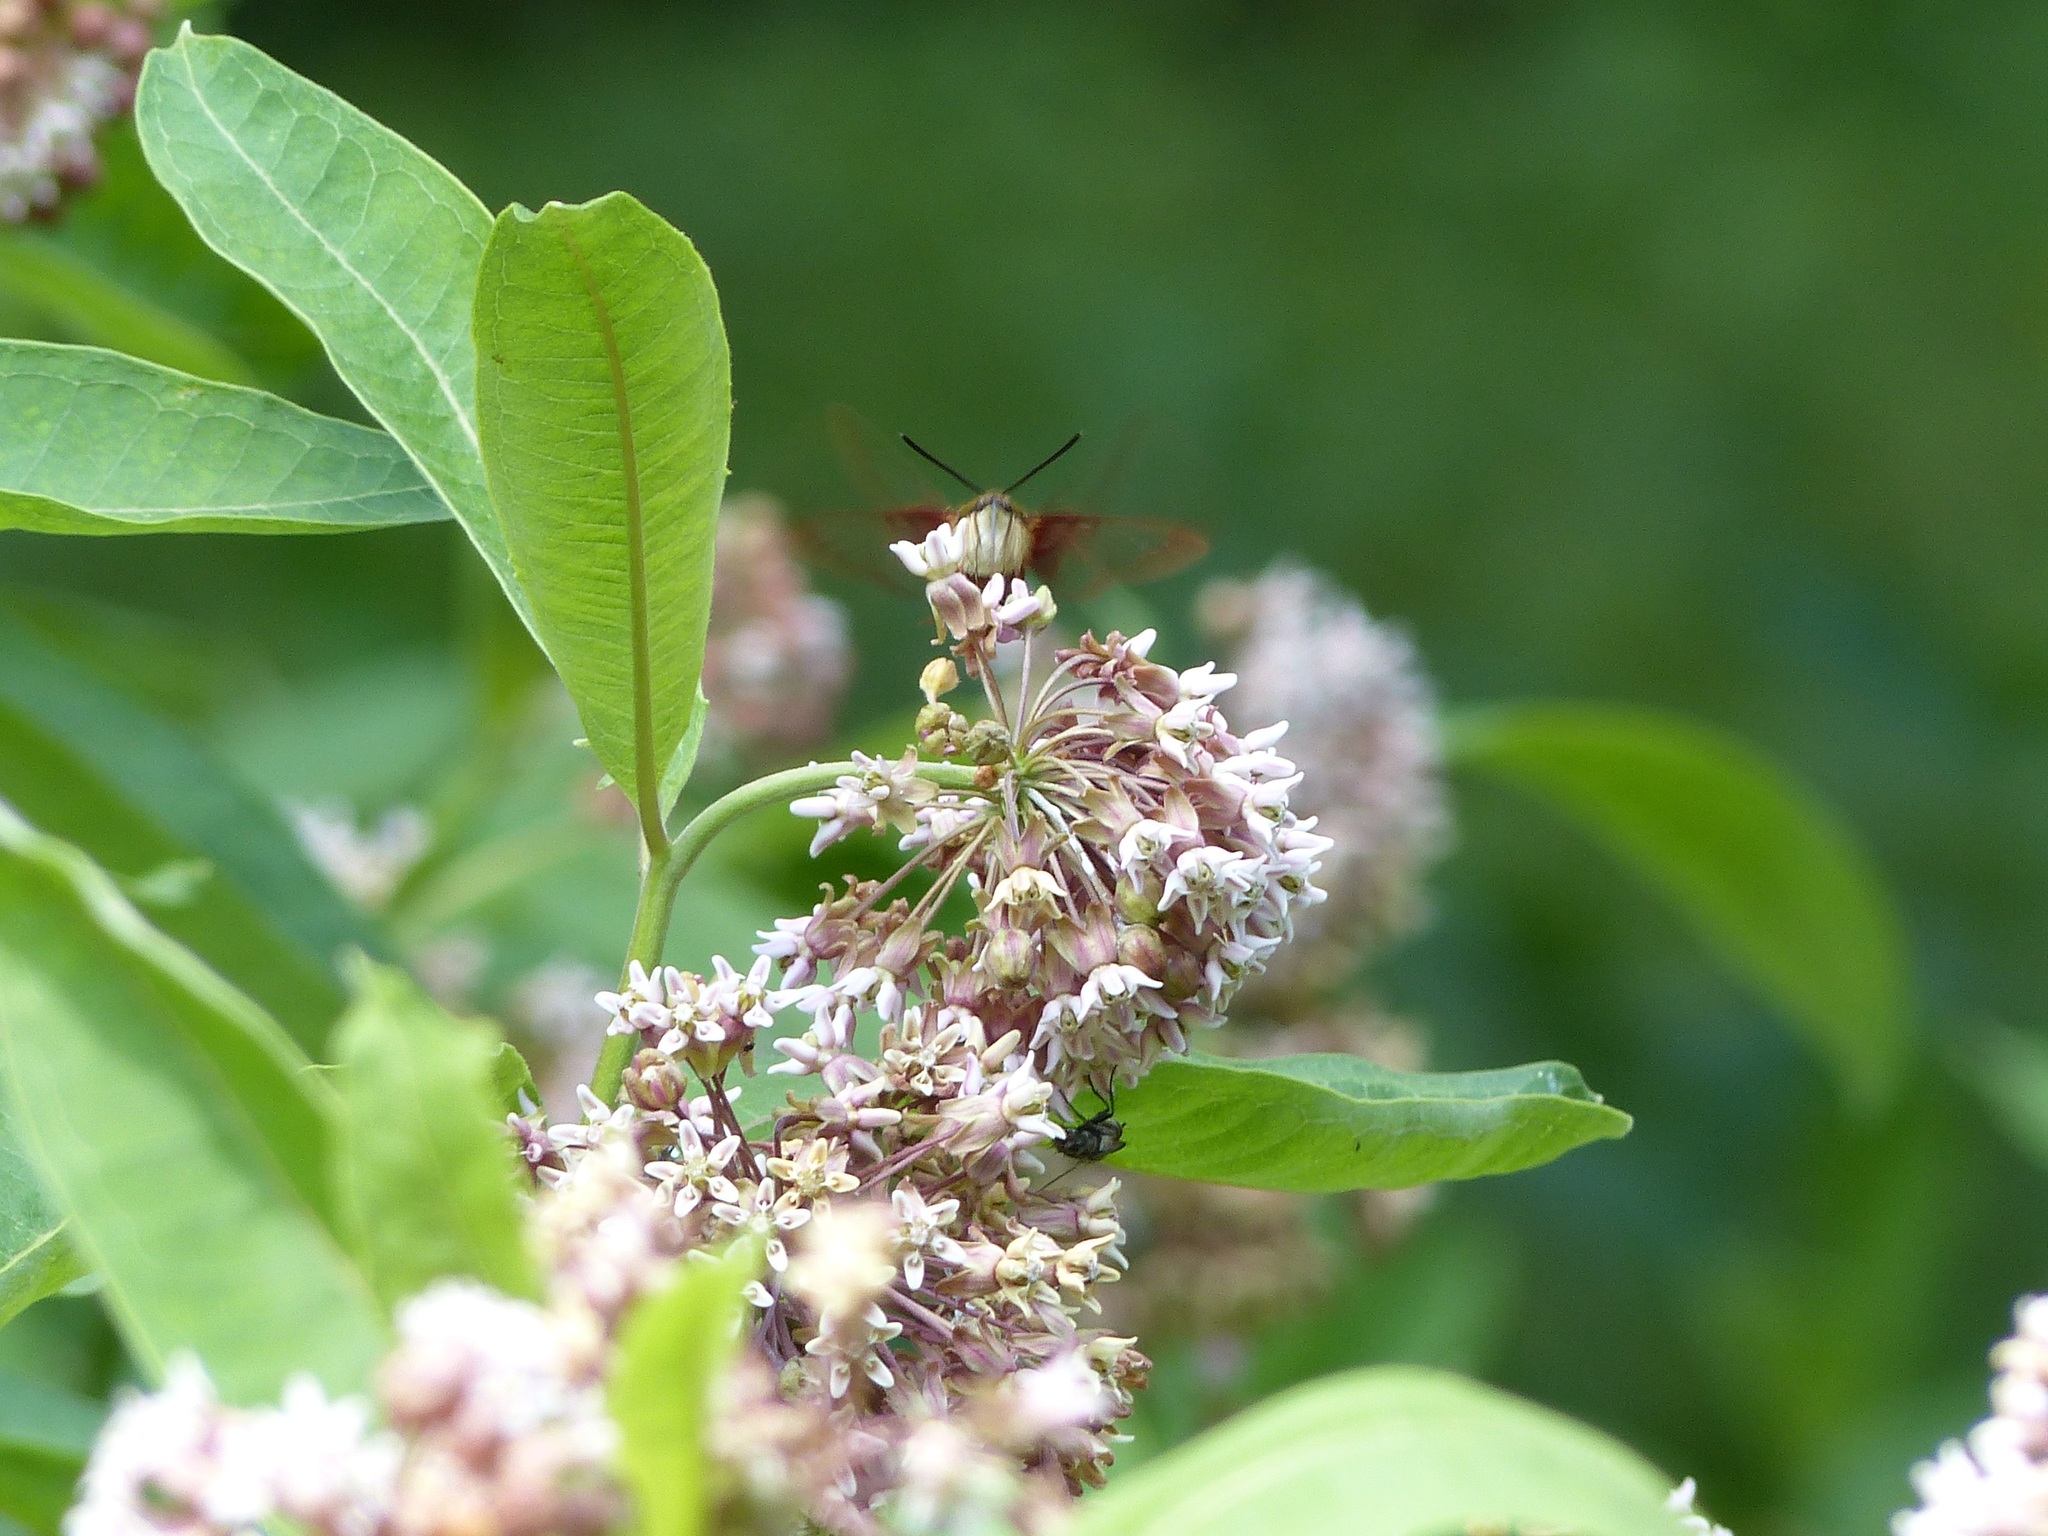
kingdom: Plantae
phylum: Tracheophyta
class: Magnoliopsida
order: Gentianales
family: Apocynaceae
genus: Asclepias
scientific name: Asclepias syriaca
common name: Common milkweed
